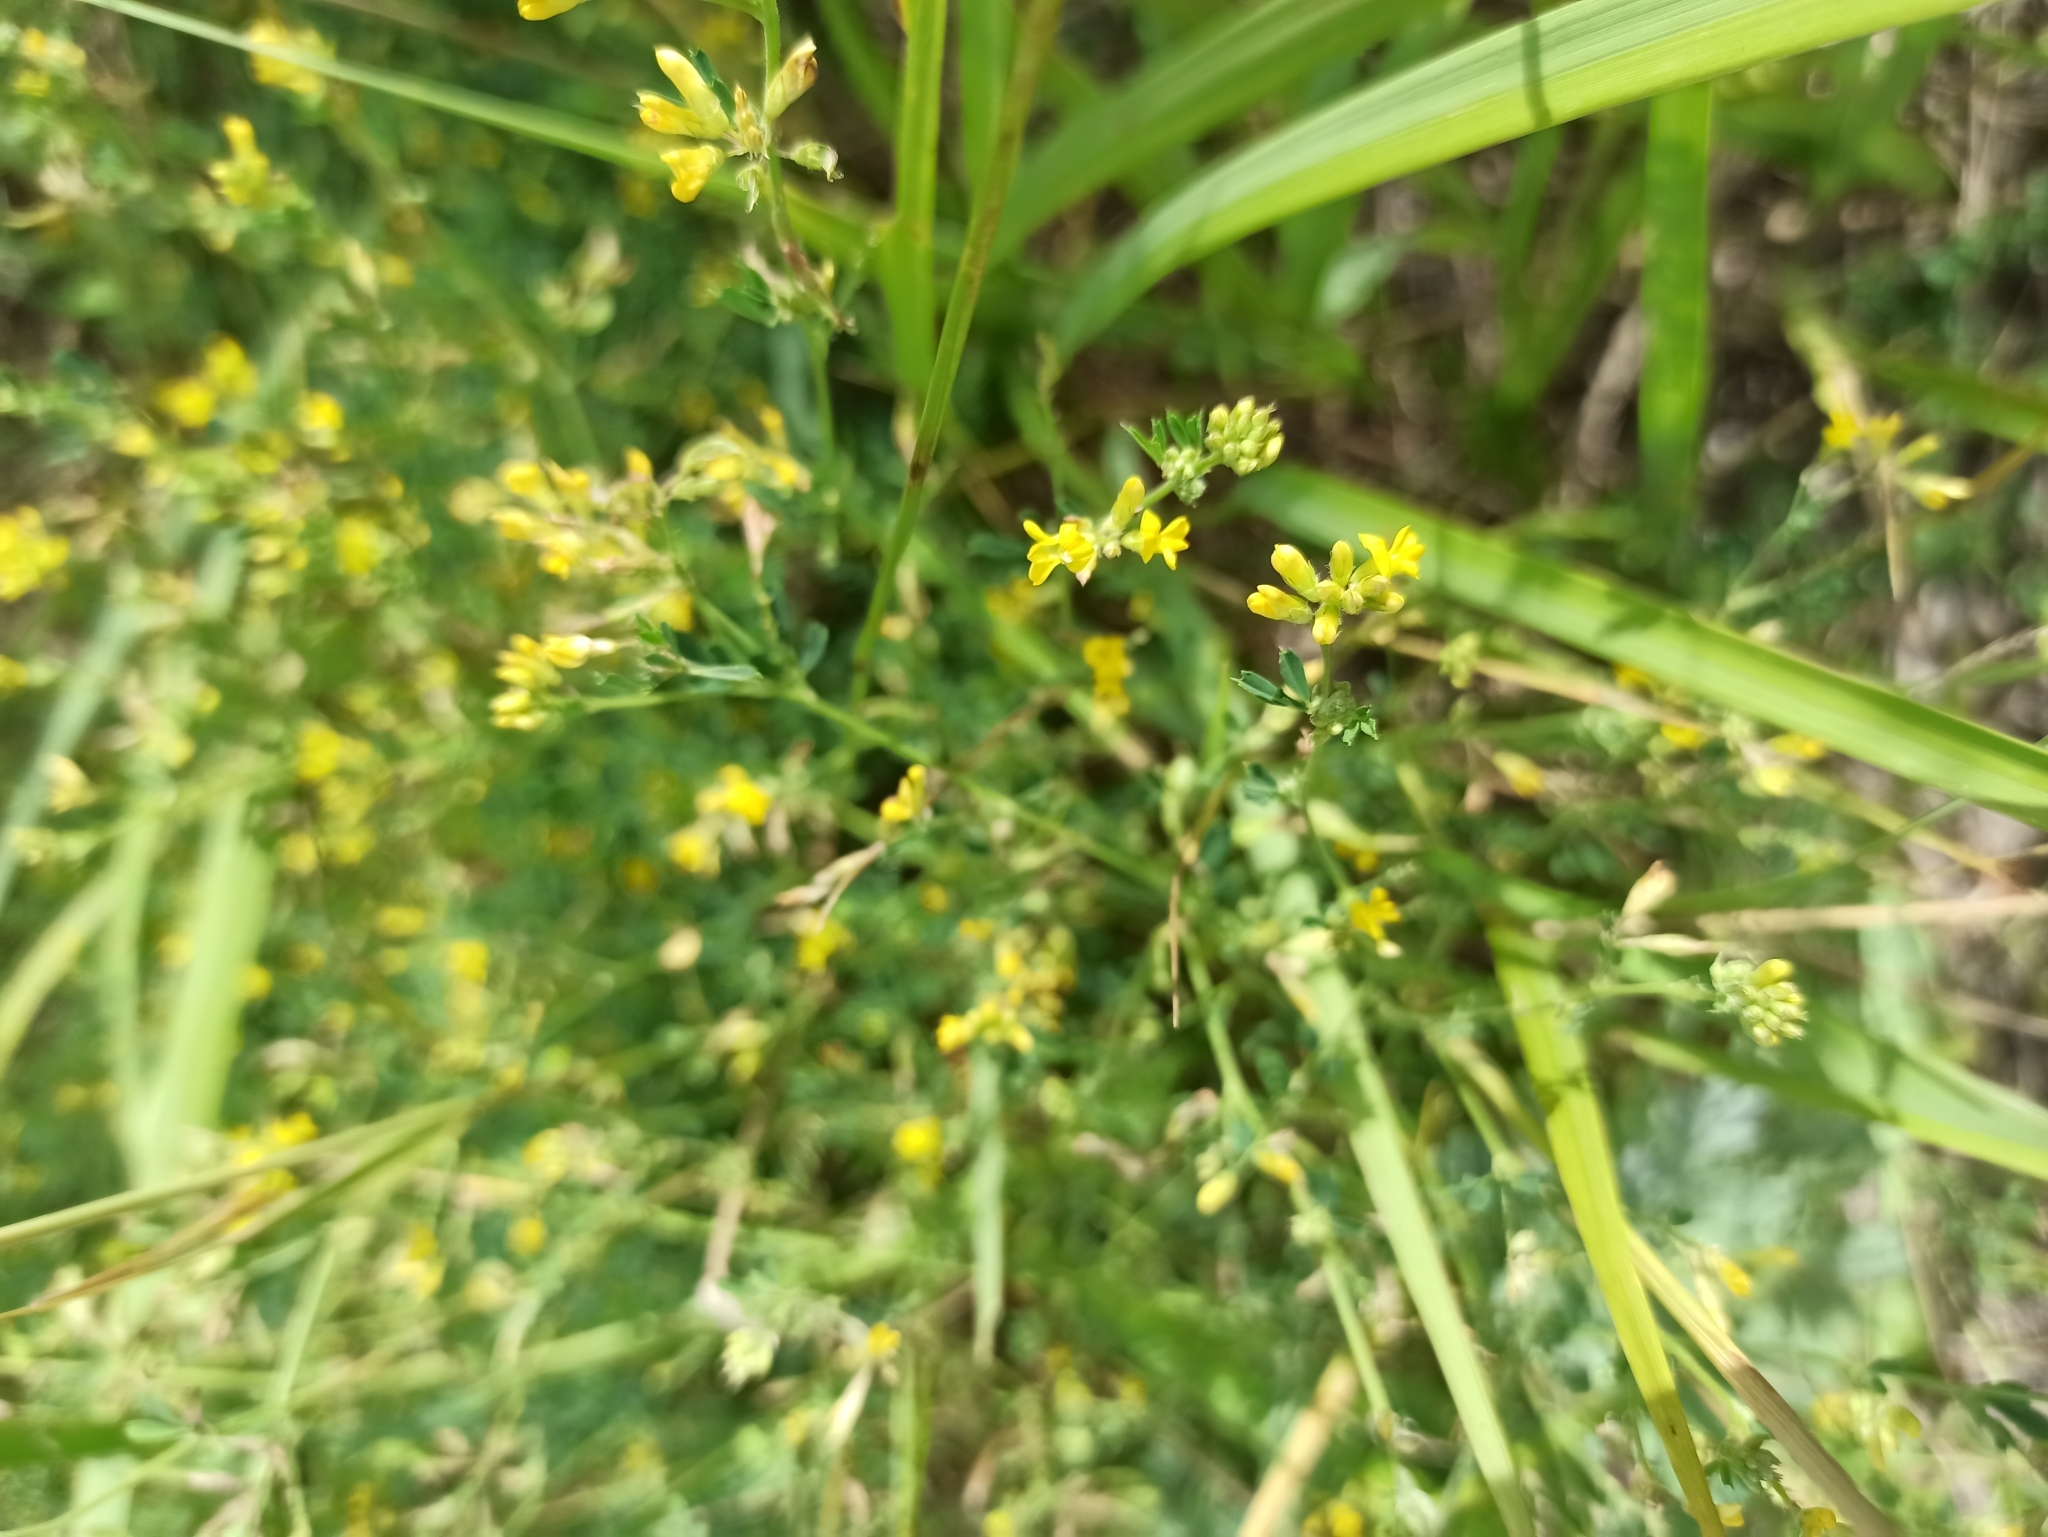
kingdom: Plantae
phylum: Tracheophyta
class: Magnoliopsida
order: Fabales
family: Fabaceae
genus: Medicago
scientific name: Medicago falcata
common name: Sickle medick
